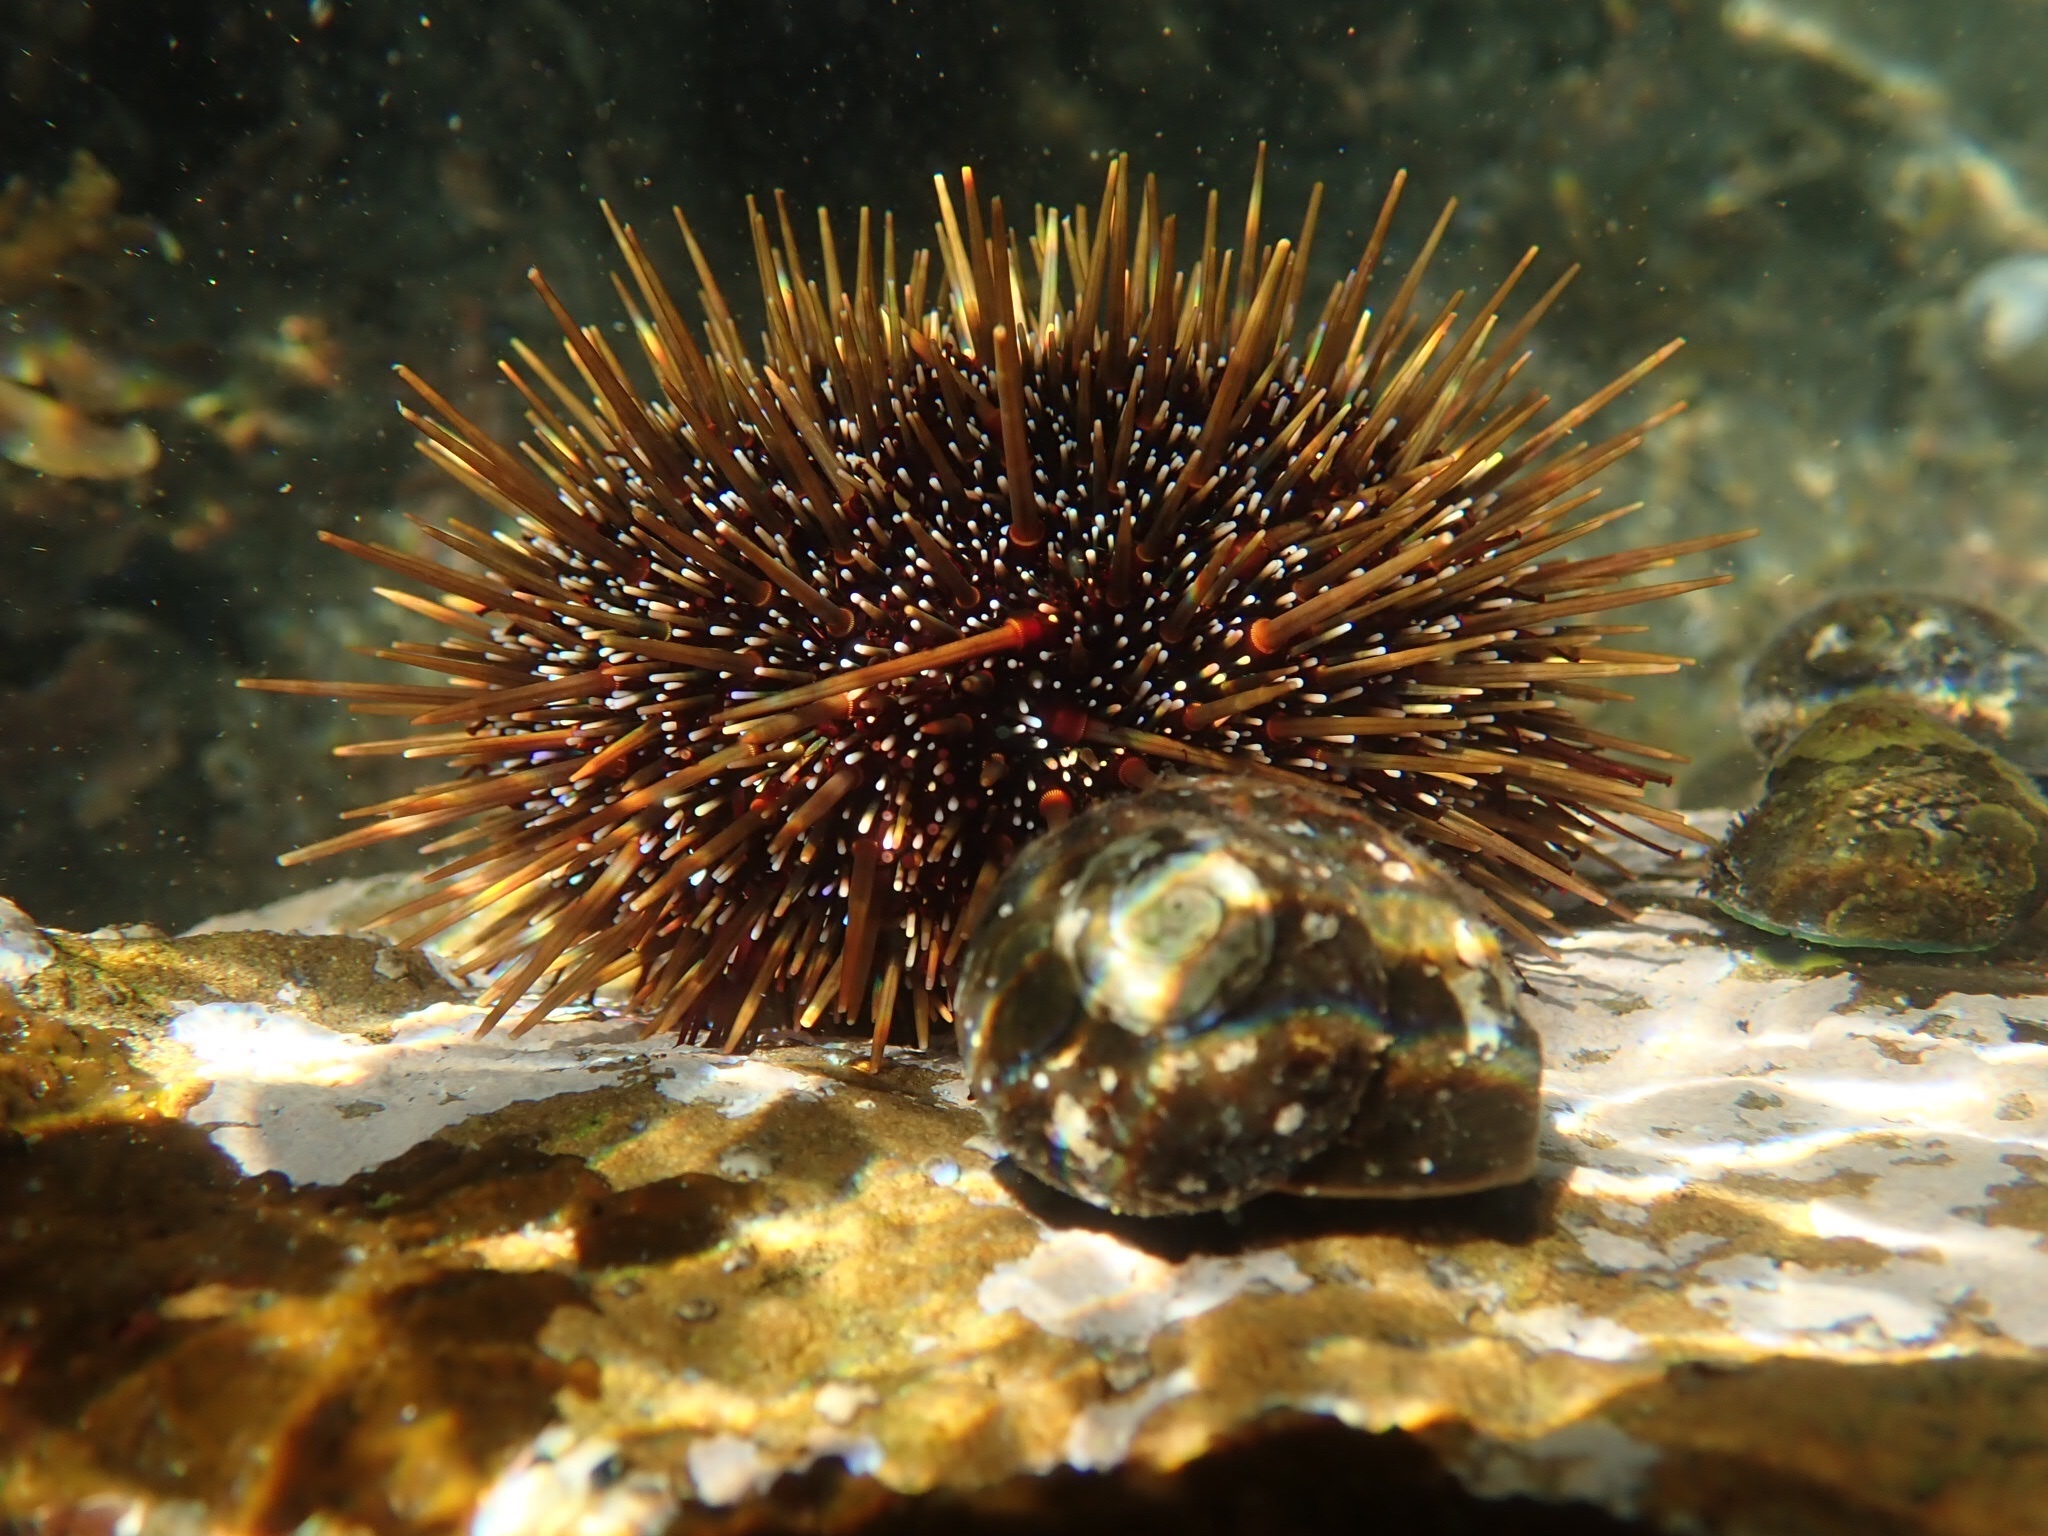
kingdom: Animalia
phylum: Echinodermata
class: Echinoidea
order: Camarodonta
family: Echinometridae
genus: Evechinus
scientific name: Evechinus chloroticus
